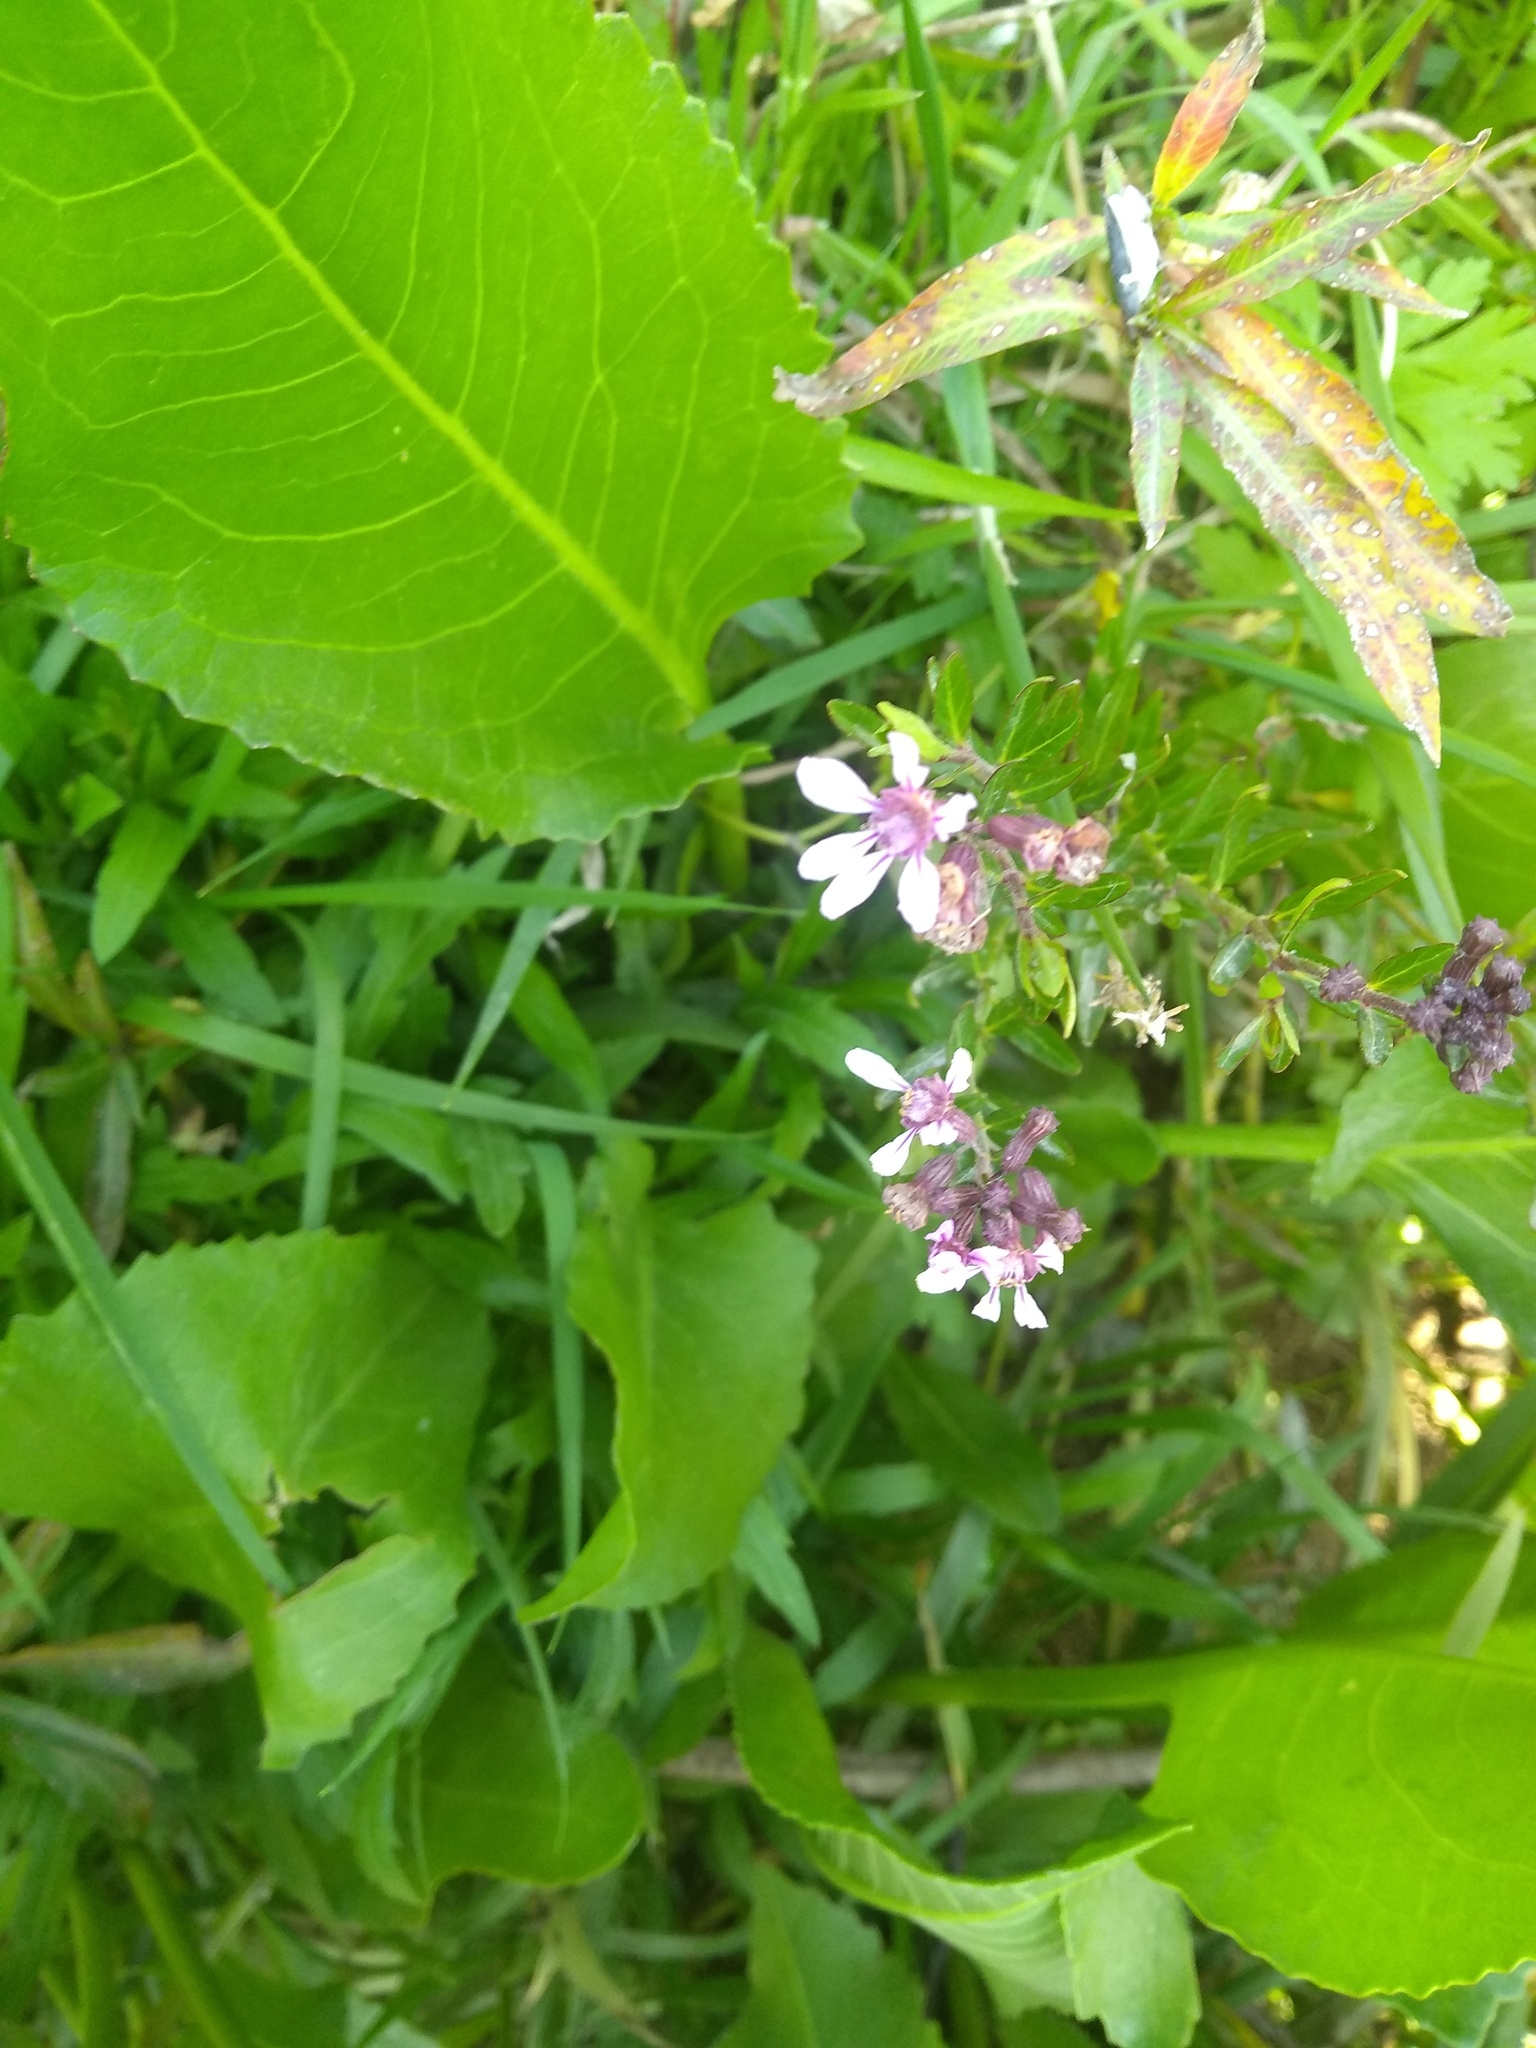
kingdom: Plantae
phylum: Tracheophyta
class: Magnoliopsida
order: Myrtales
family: Lythraceae
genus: Cuphea
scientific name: Cuphea fruticosa
